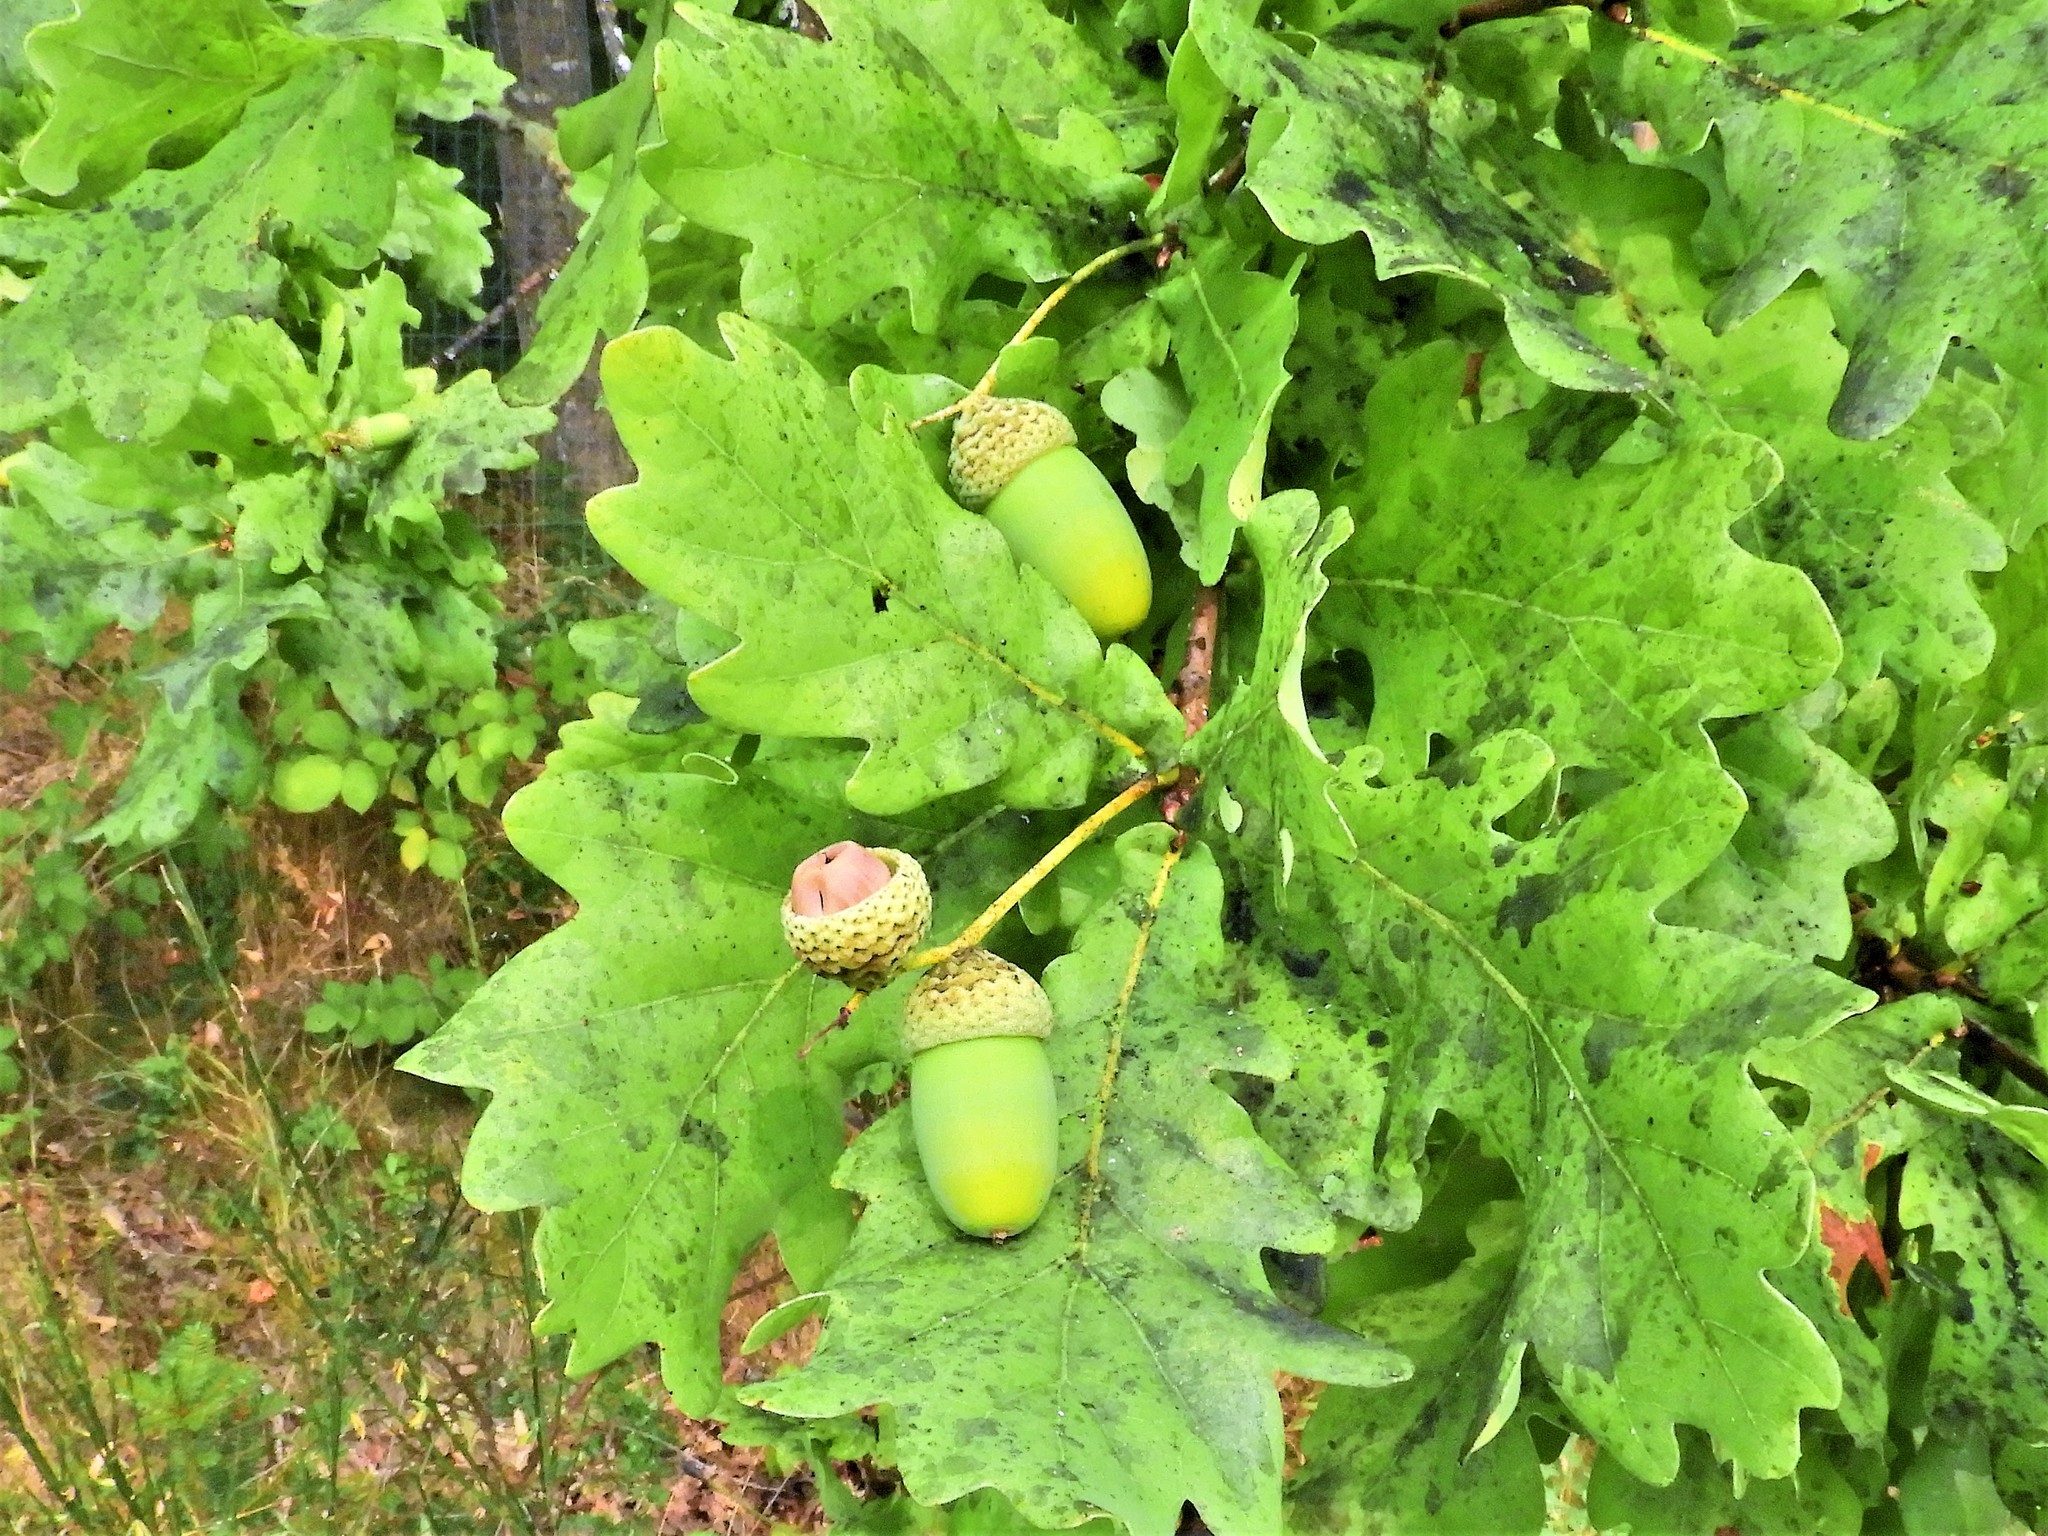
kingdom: Plantae
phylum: Tracheophyta
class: Magnoliopsida
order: Fagales
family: Fagaceae
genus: Quercus
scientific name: Quercus robur
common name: Pedunculate oak
